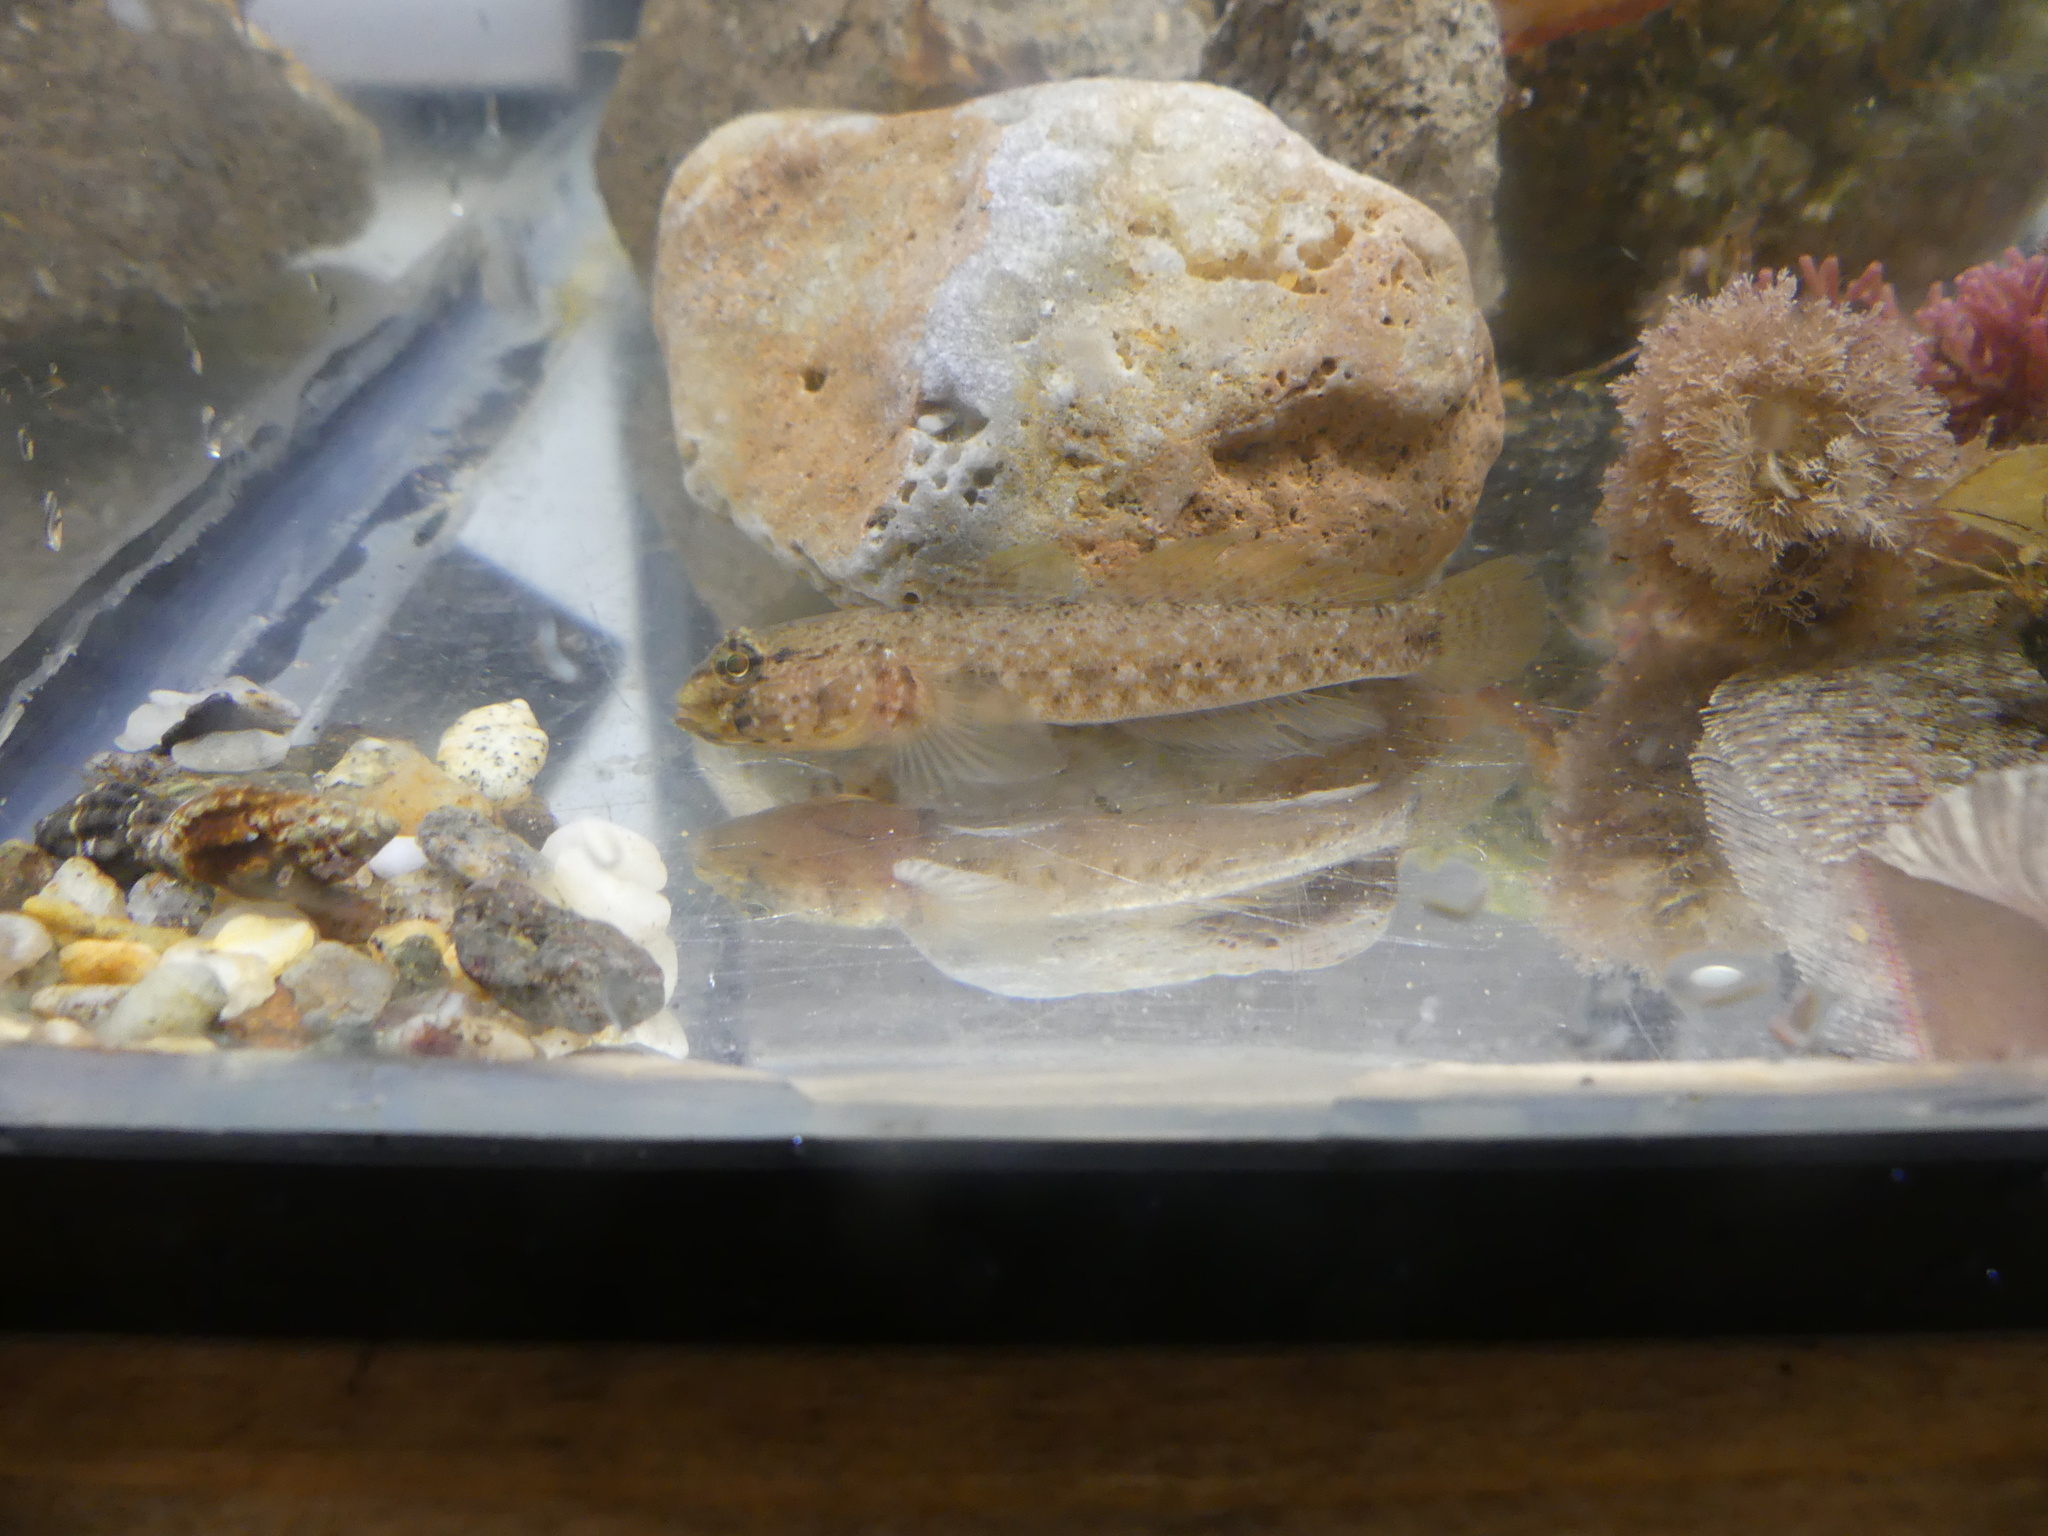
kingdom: Animalia
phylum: Chordata
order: Perciformes
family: Gobiidae
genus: Gobius
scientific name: Gobius incognitus
